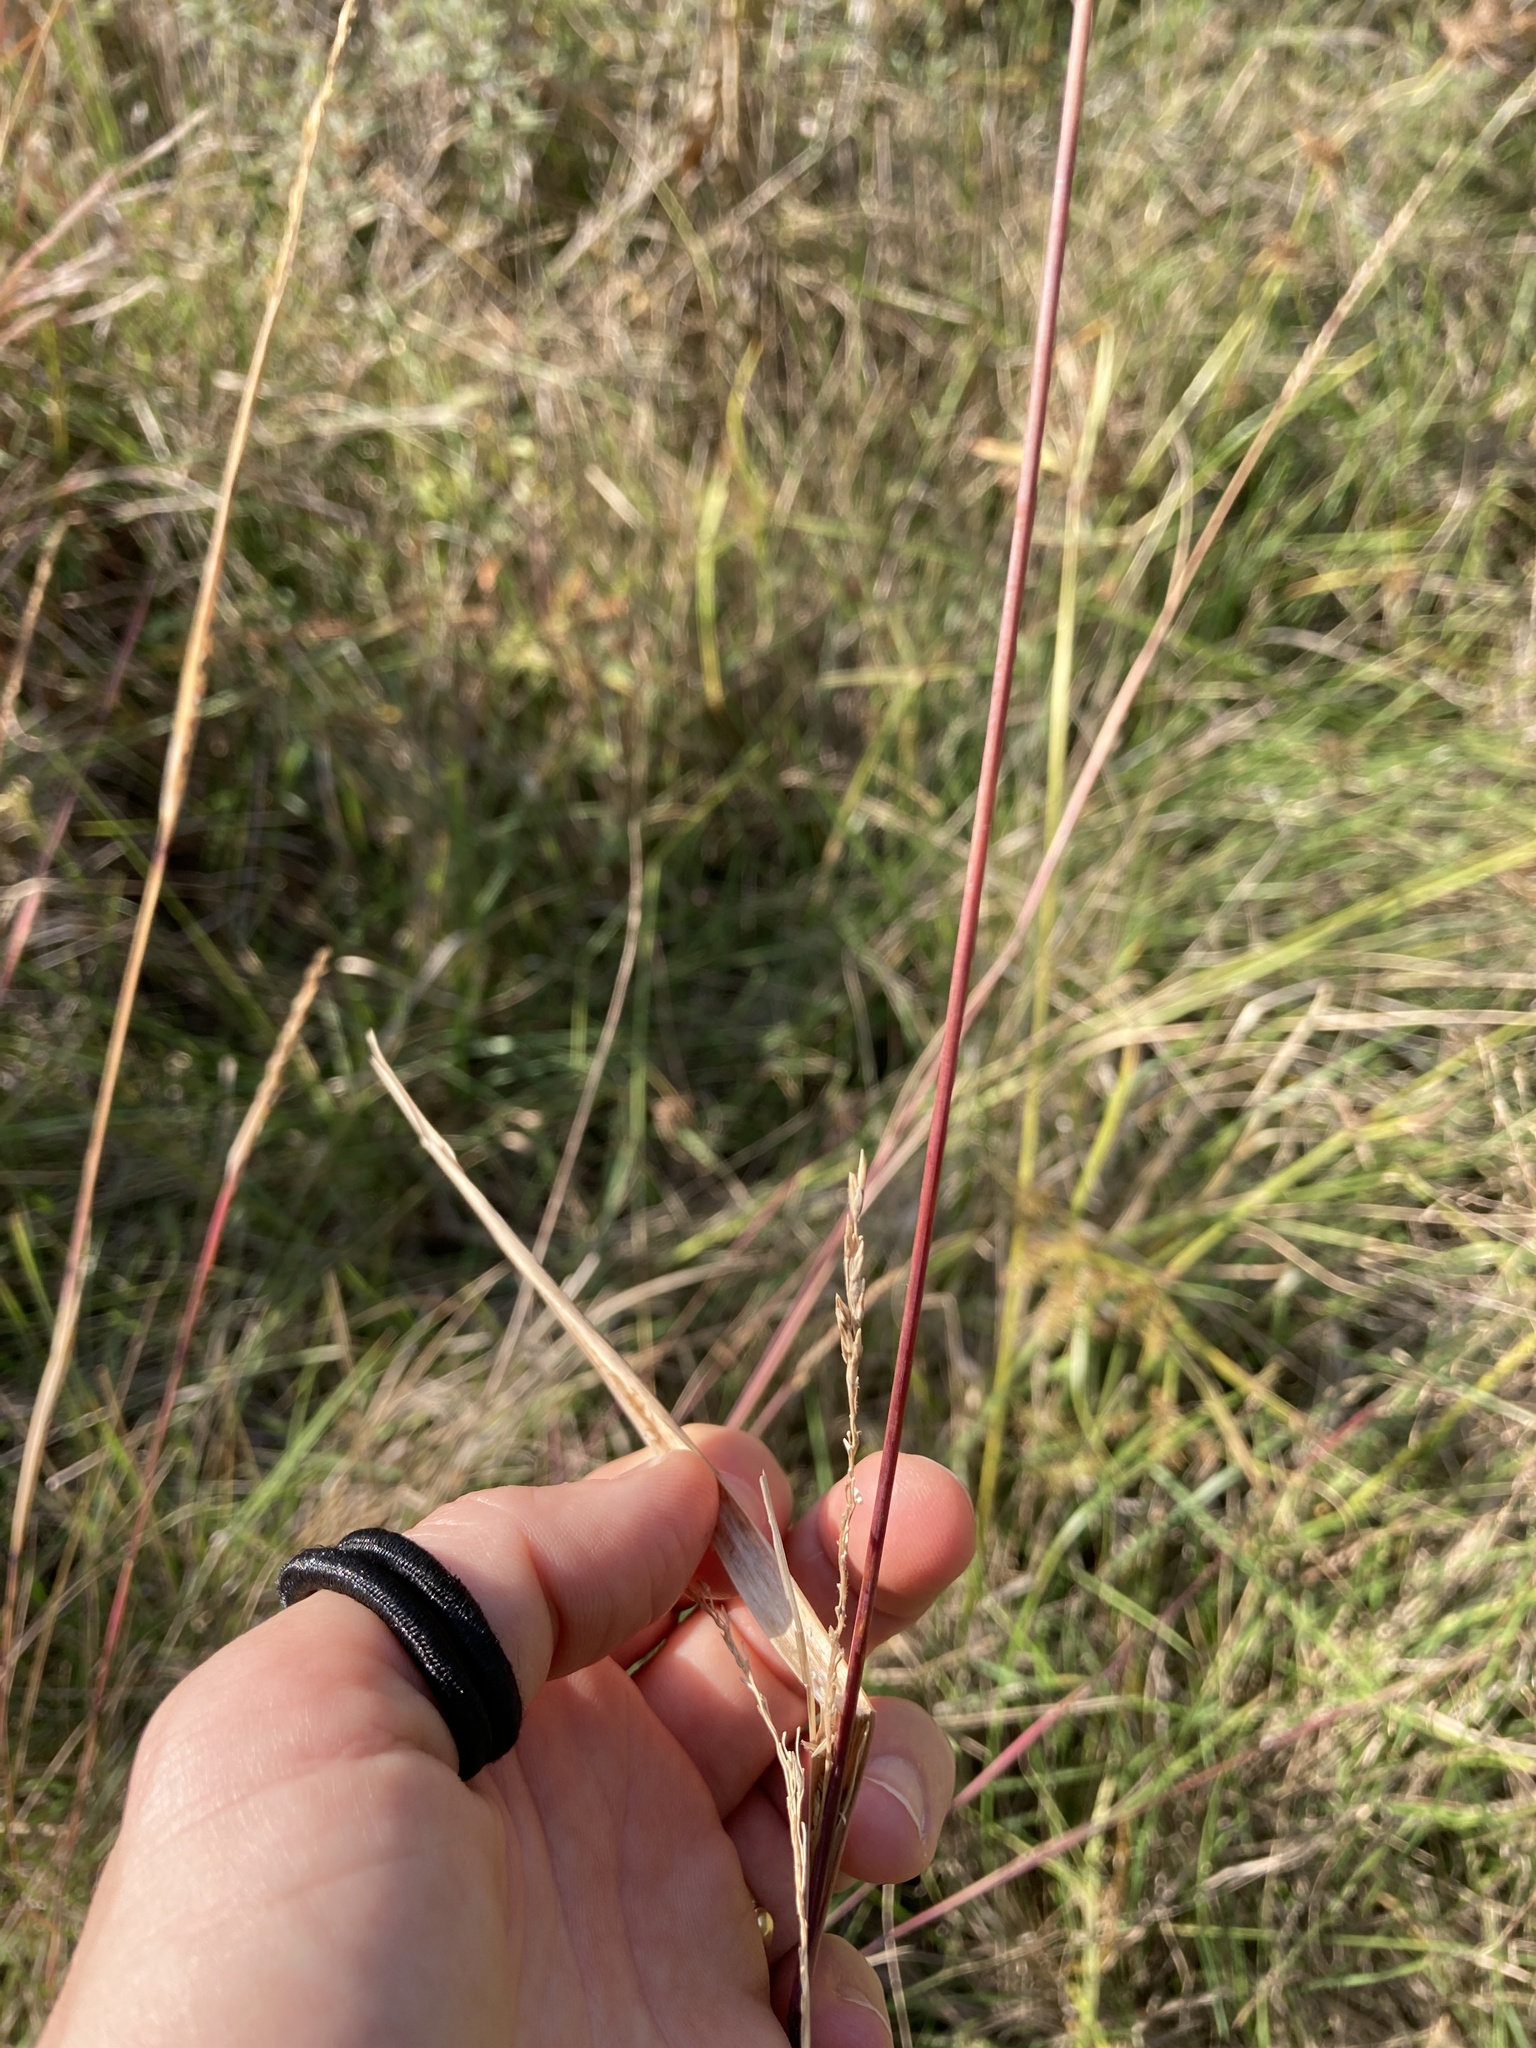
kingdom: Plantae
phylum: Tracheophyta
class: Liliopsida
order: Poales
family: Poaceae
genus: Sporobolus
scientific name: Sporobolus compositus
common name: Rough dropseed
